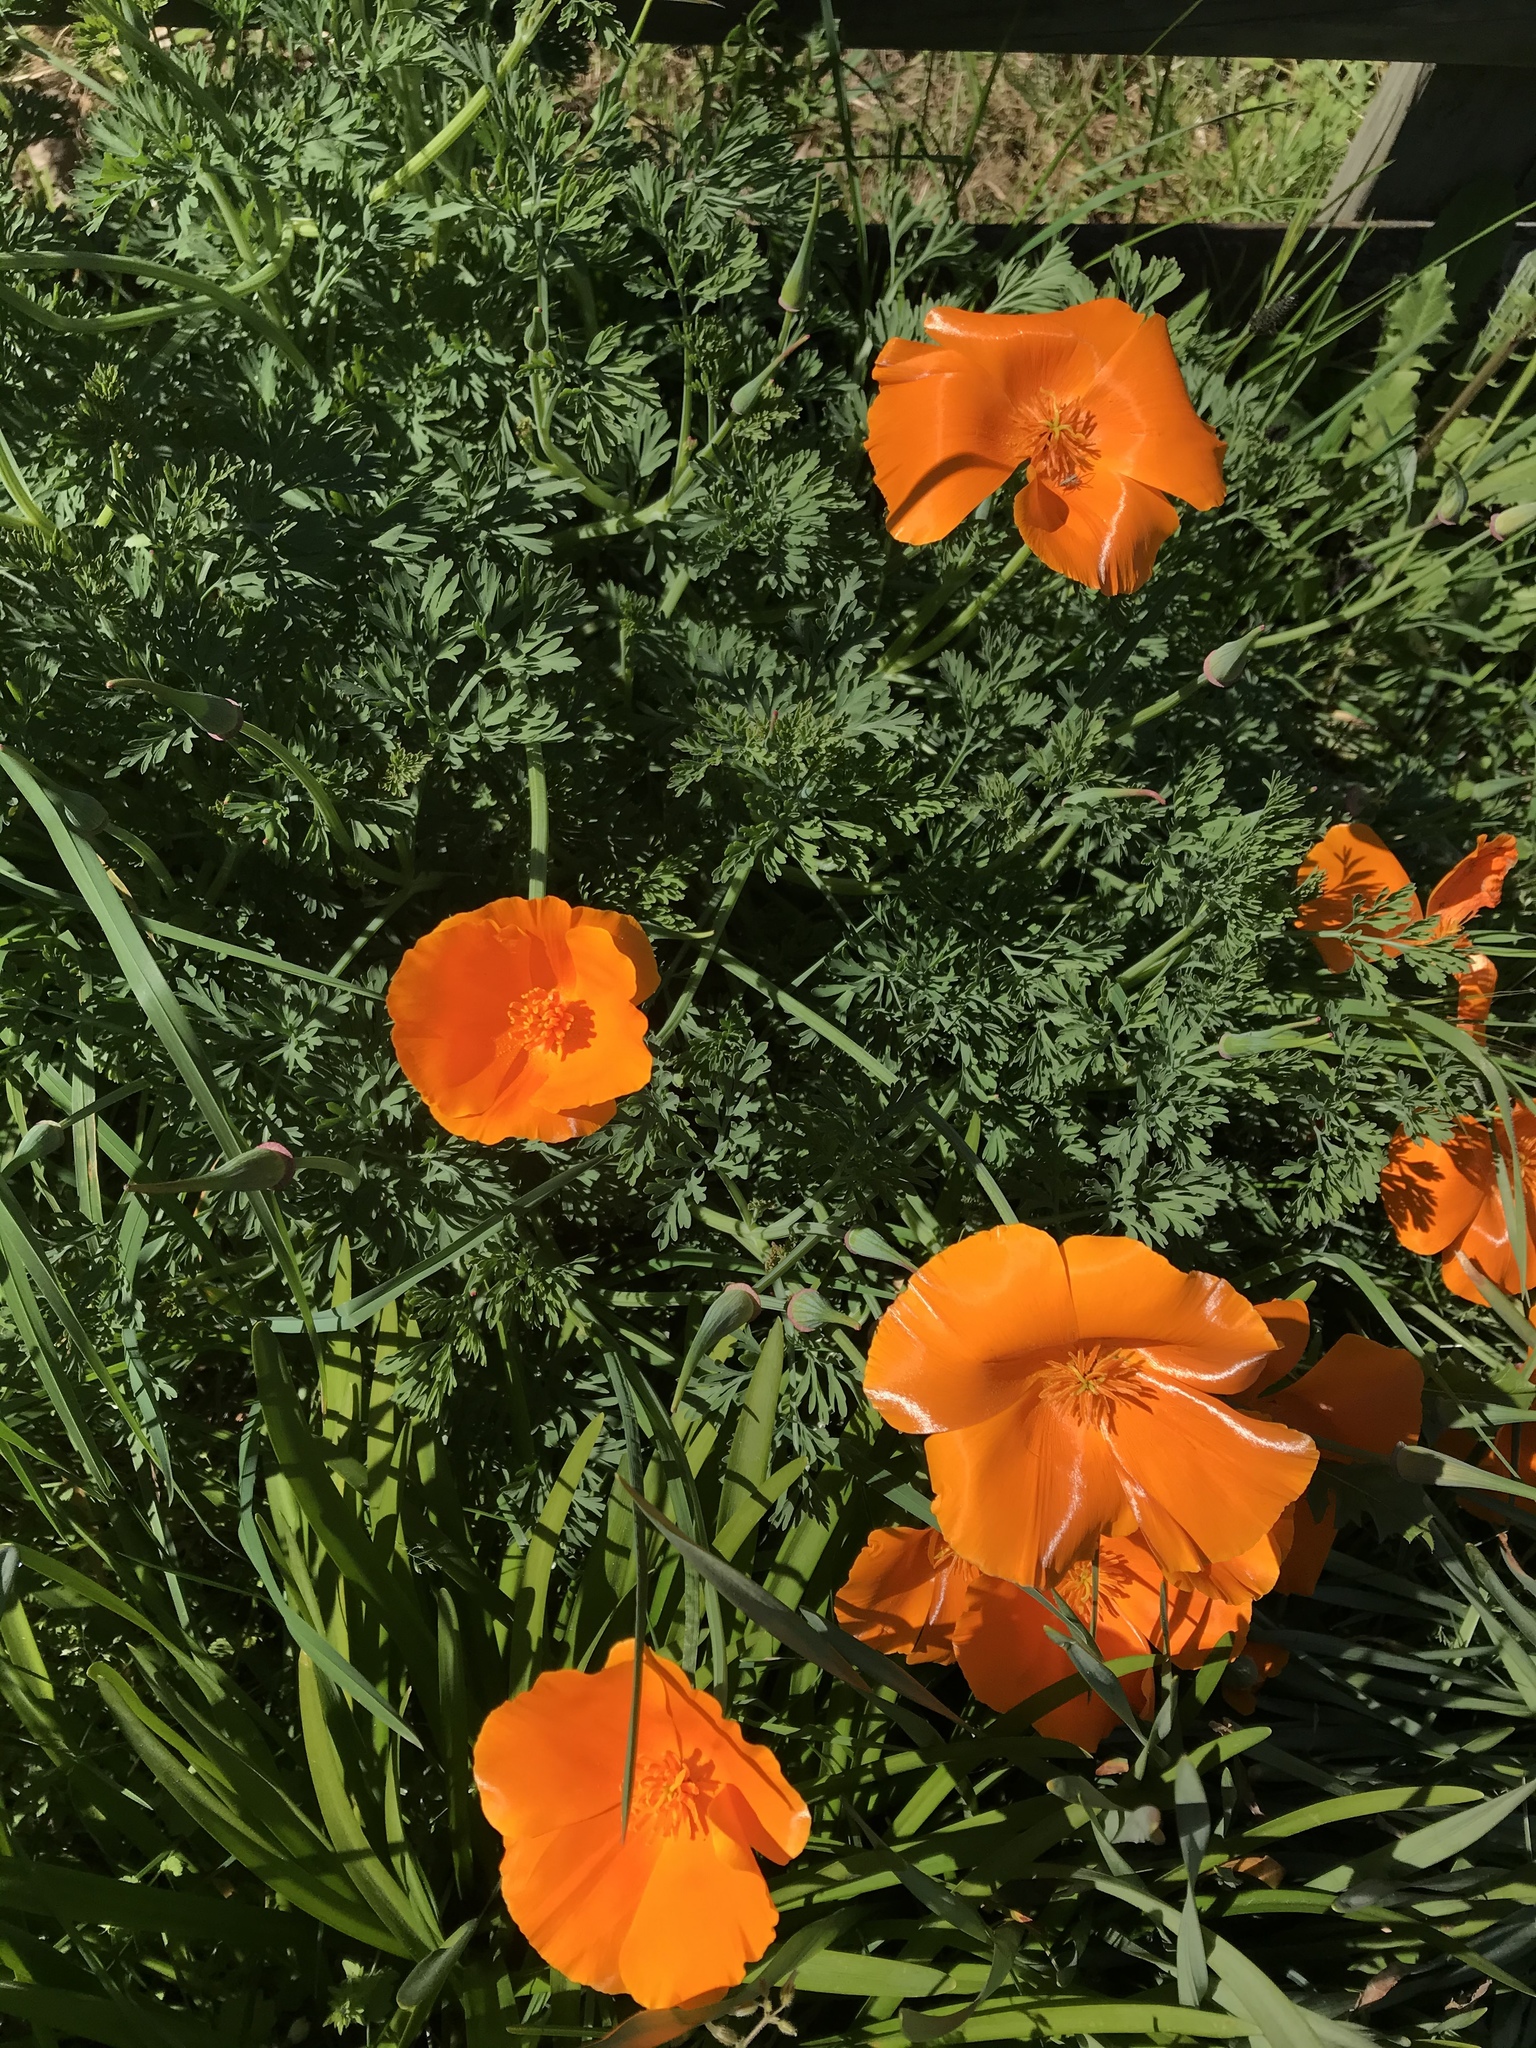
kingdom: Plantae
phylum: Tracheophyta
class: Magnoliopsida
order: Ranunculales
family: Papaveraceae
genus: Eschscholzia
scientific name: Eschscholzia californica
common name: California poppy
